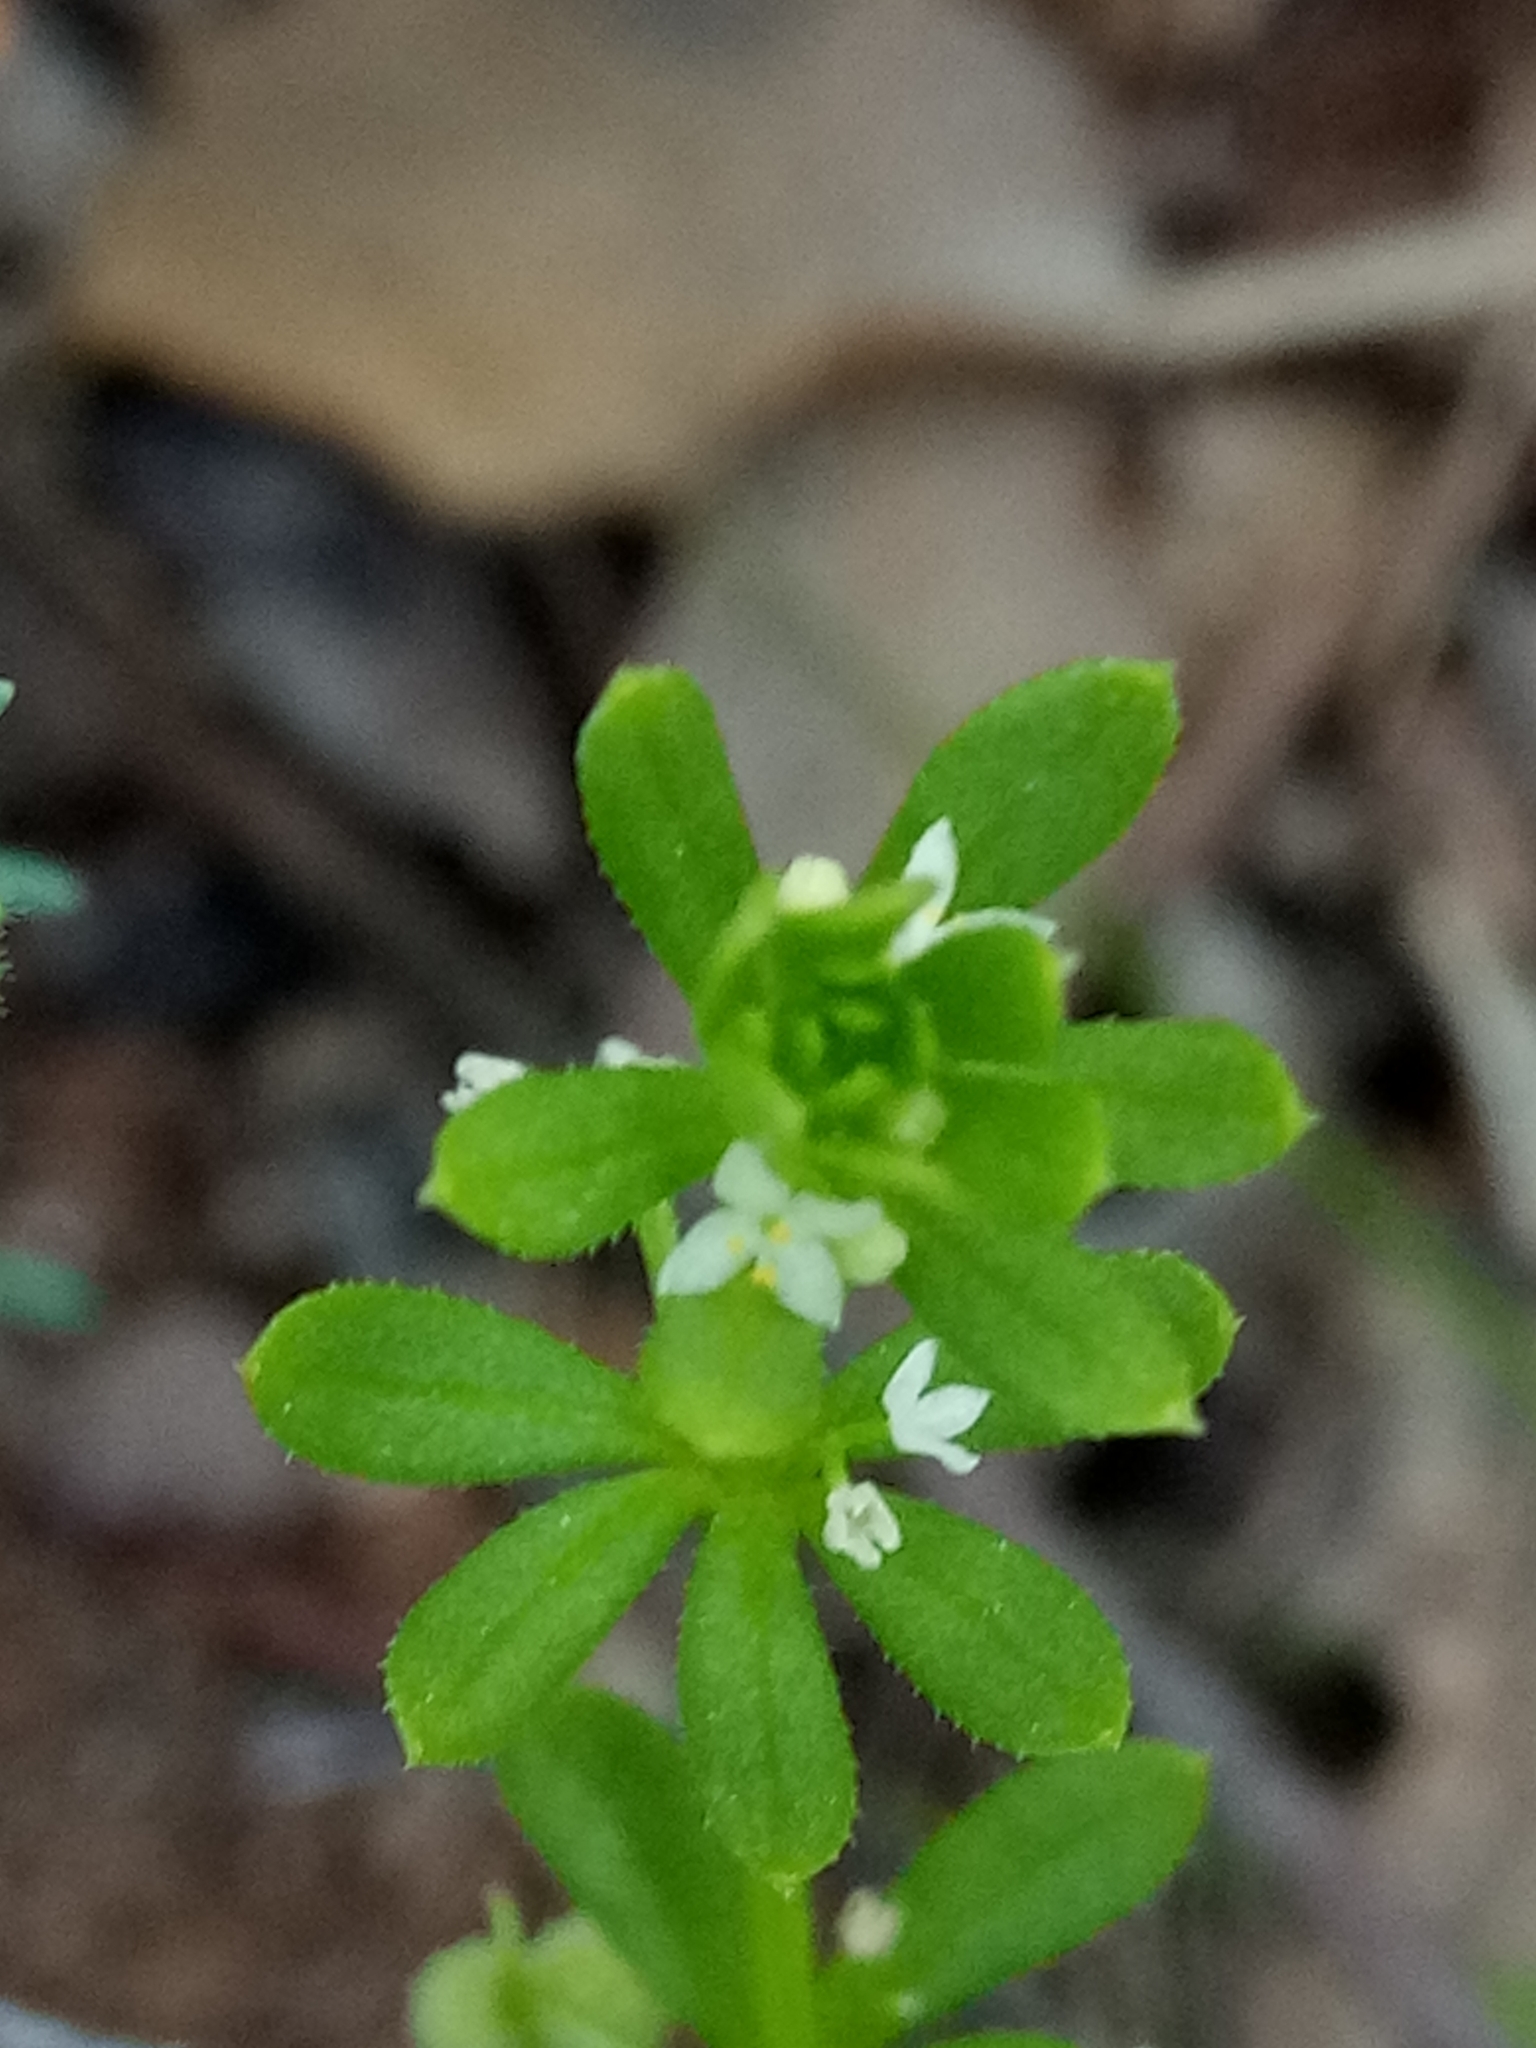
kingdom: Plantae
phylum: Tracheophyta
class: Magnoliopsida
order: Gentianales
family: Rubiaceae
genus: Galium
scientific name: Galium verrucosum
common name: Warty bedstraw
